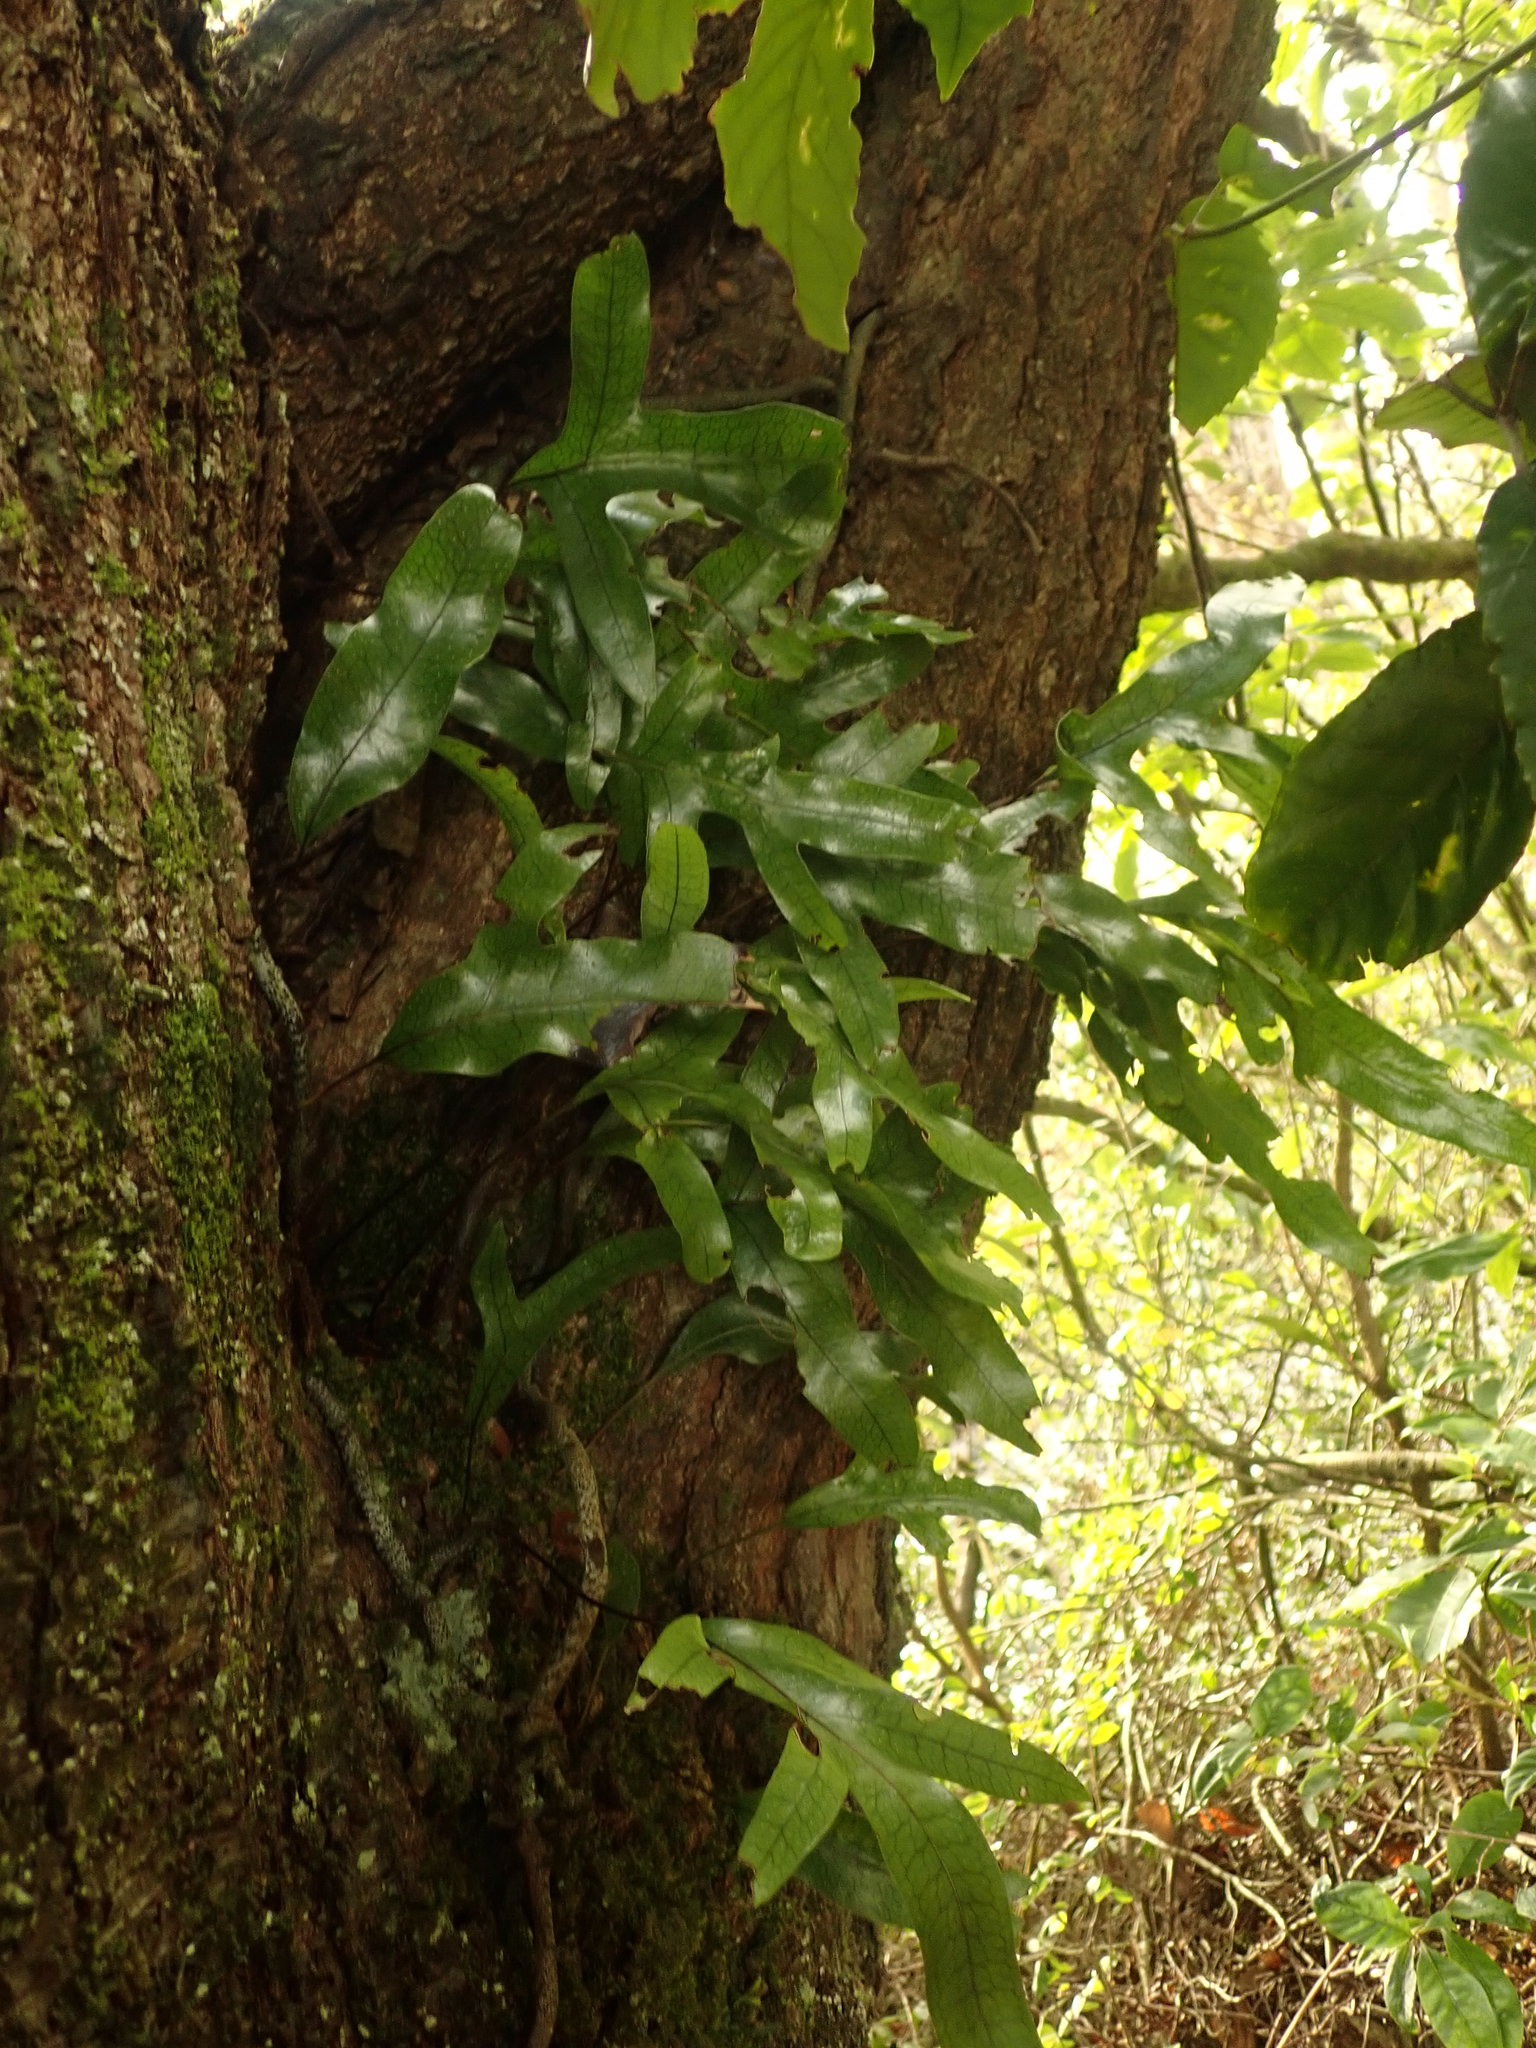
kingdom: Plantae
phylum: Tracheophyta
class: Polypodiopsida
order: Polypodiales
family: Polypodiaceae
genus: Lecanopteris
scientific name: Lecanopteris pustulata
